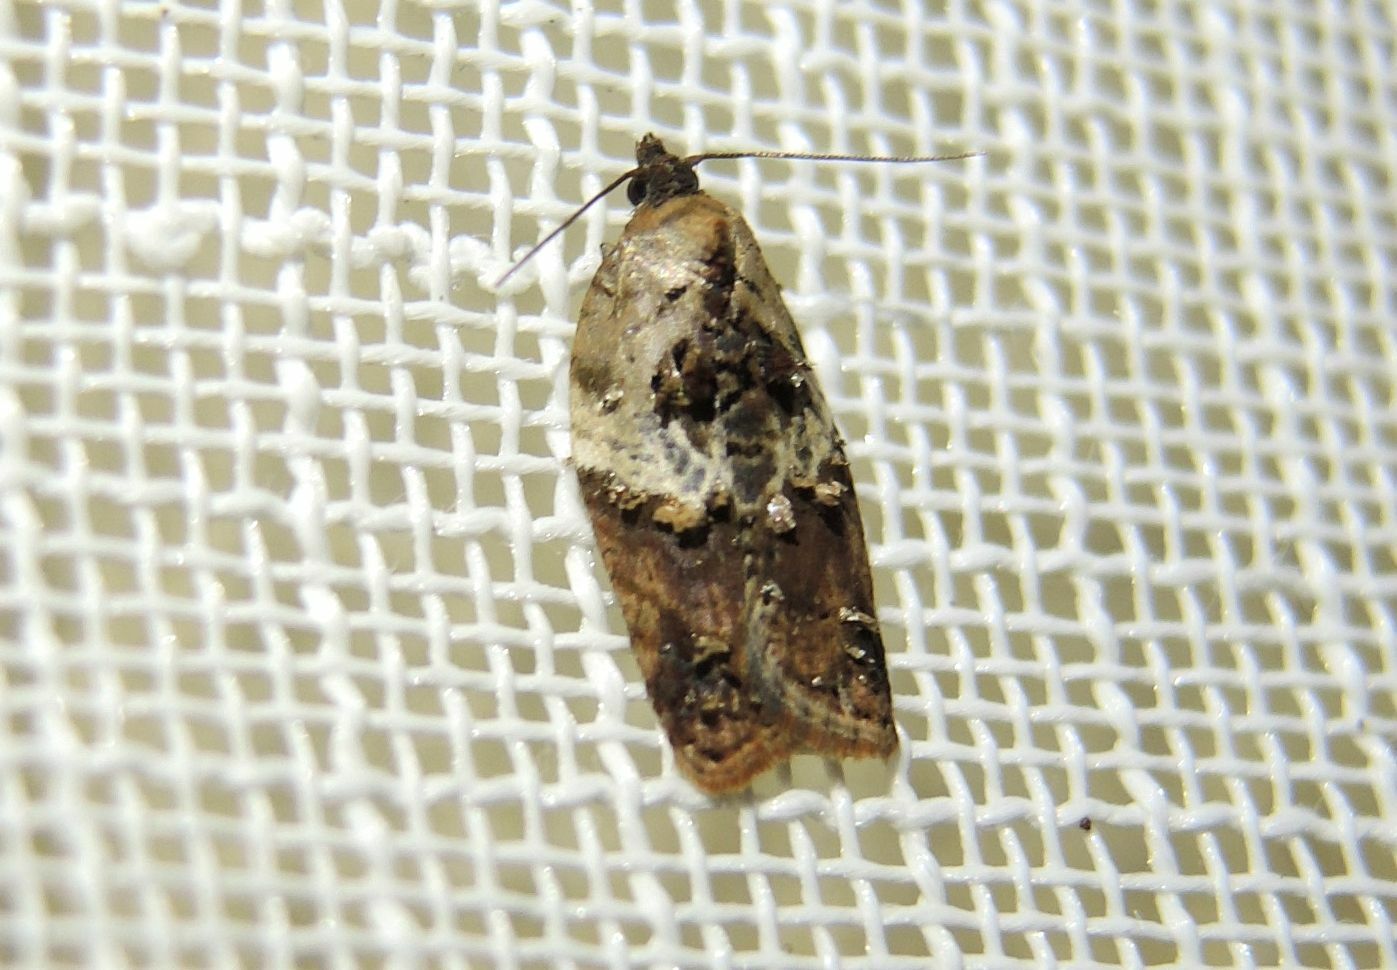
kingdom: Animalia
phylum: Arthropoda
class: Insecta
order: Lepidoptera
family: Tortricidae
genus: Acleris
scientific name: Acleris variegana
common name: Garden rose tortrix
